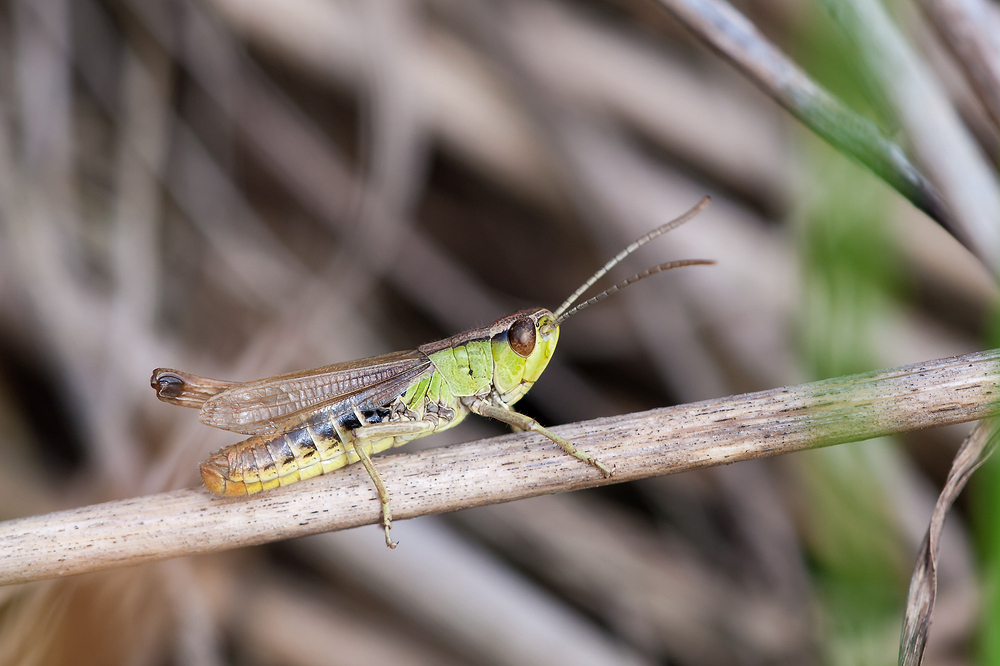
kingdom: Animalia
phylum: Arthropoda
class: Insecta
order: Orthoptera
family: Acrididae
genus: Pseudochorthippus
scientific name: Pseudochorthippus parallelus
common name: Meadow grasshopper
